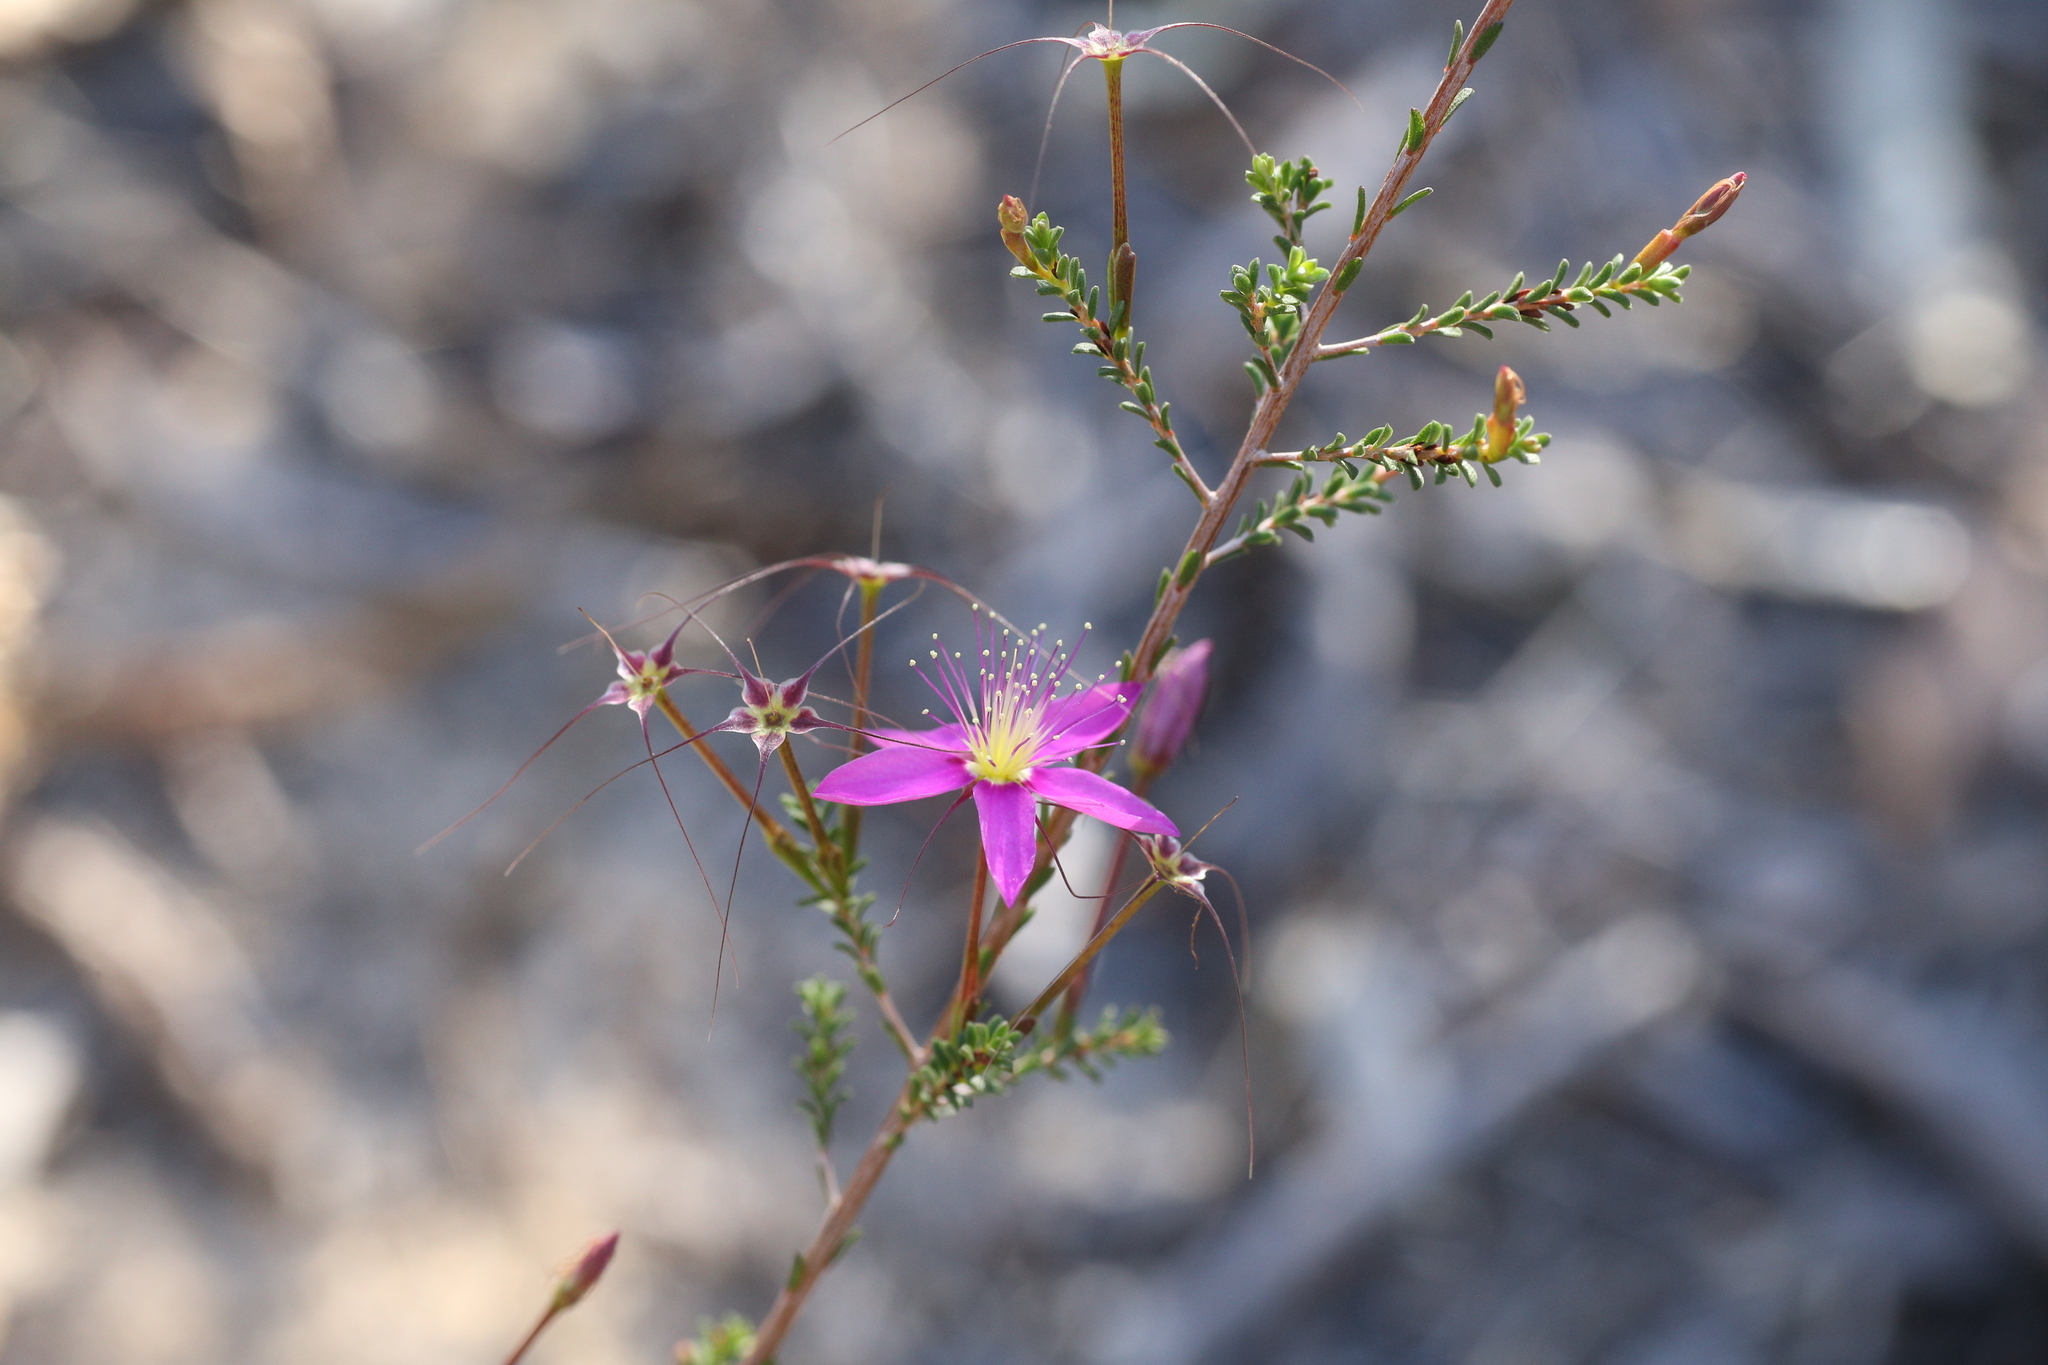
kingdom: Plantae
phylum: Tracheophyta
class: Magnoliopsida
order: Myrtales
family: Myrtaceae
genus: Calytrix
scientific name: Calytrix fraseri
